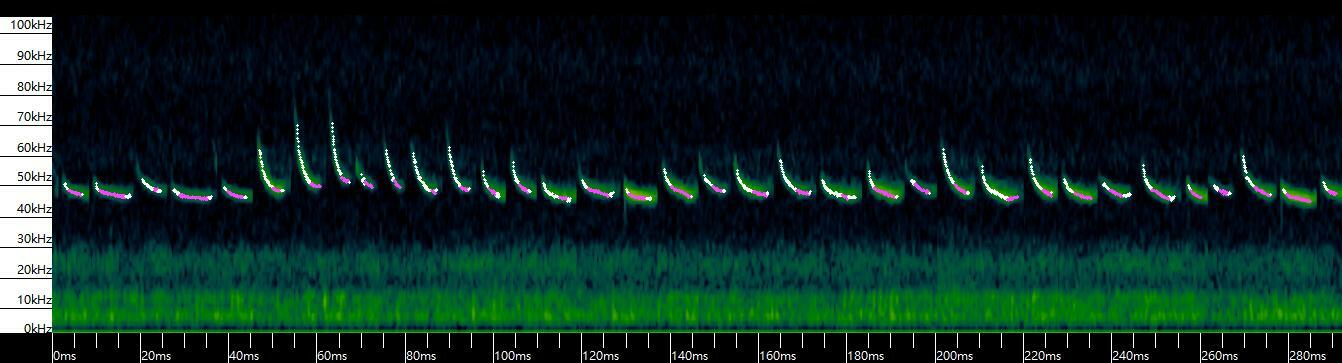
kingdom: Animalia
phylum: Chordata
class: Mammalia
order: Chiroptera
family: Vespertilionidae
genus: Pipistrellus
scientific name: Pipistrellus abramus
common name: Japanese pipistrelle
